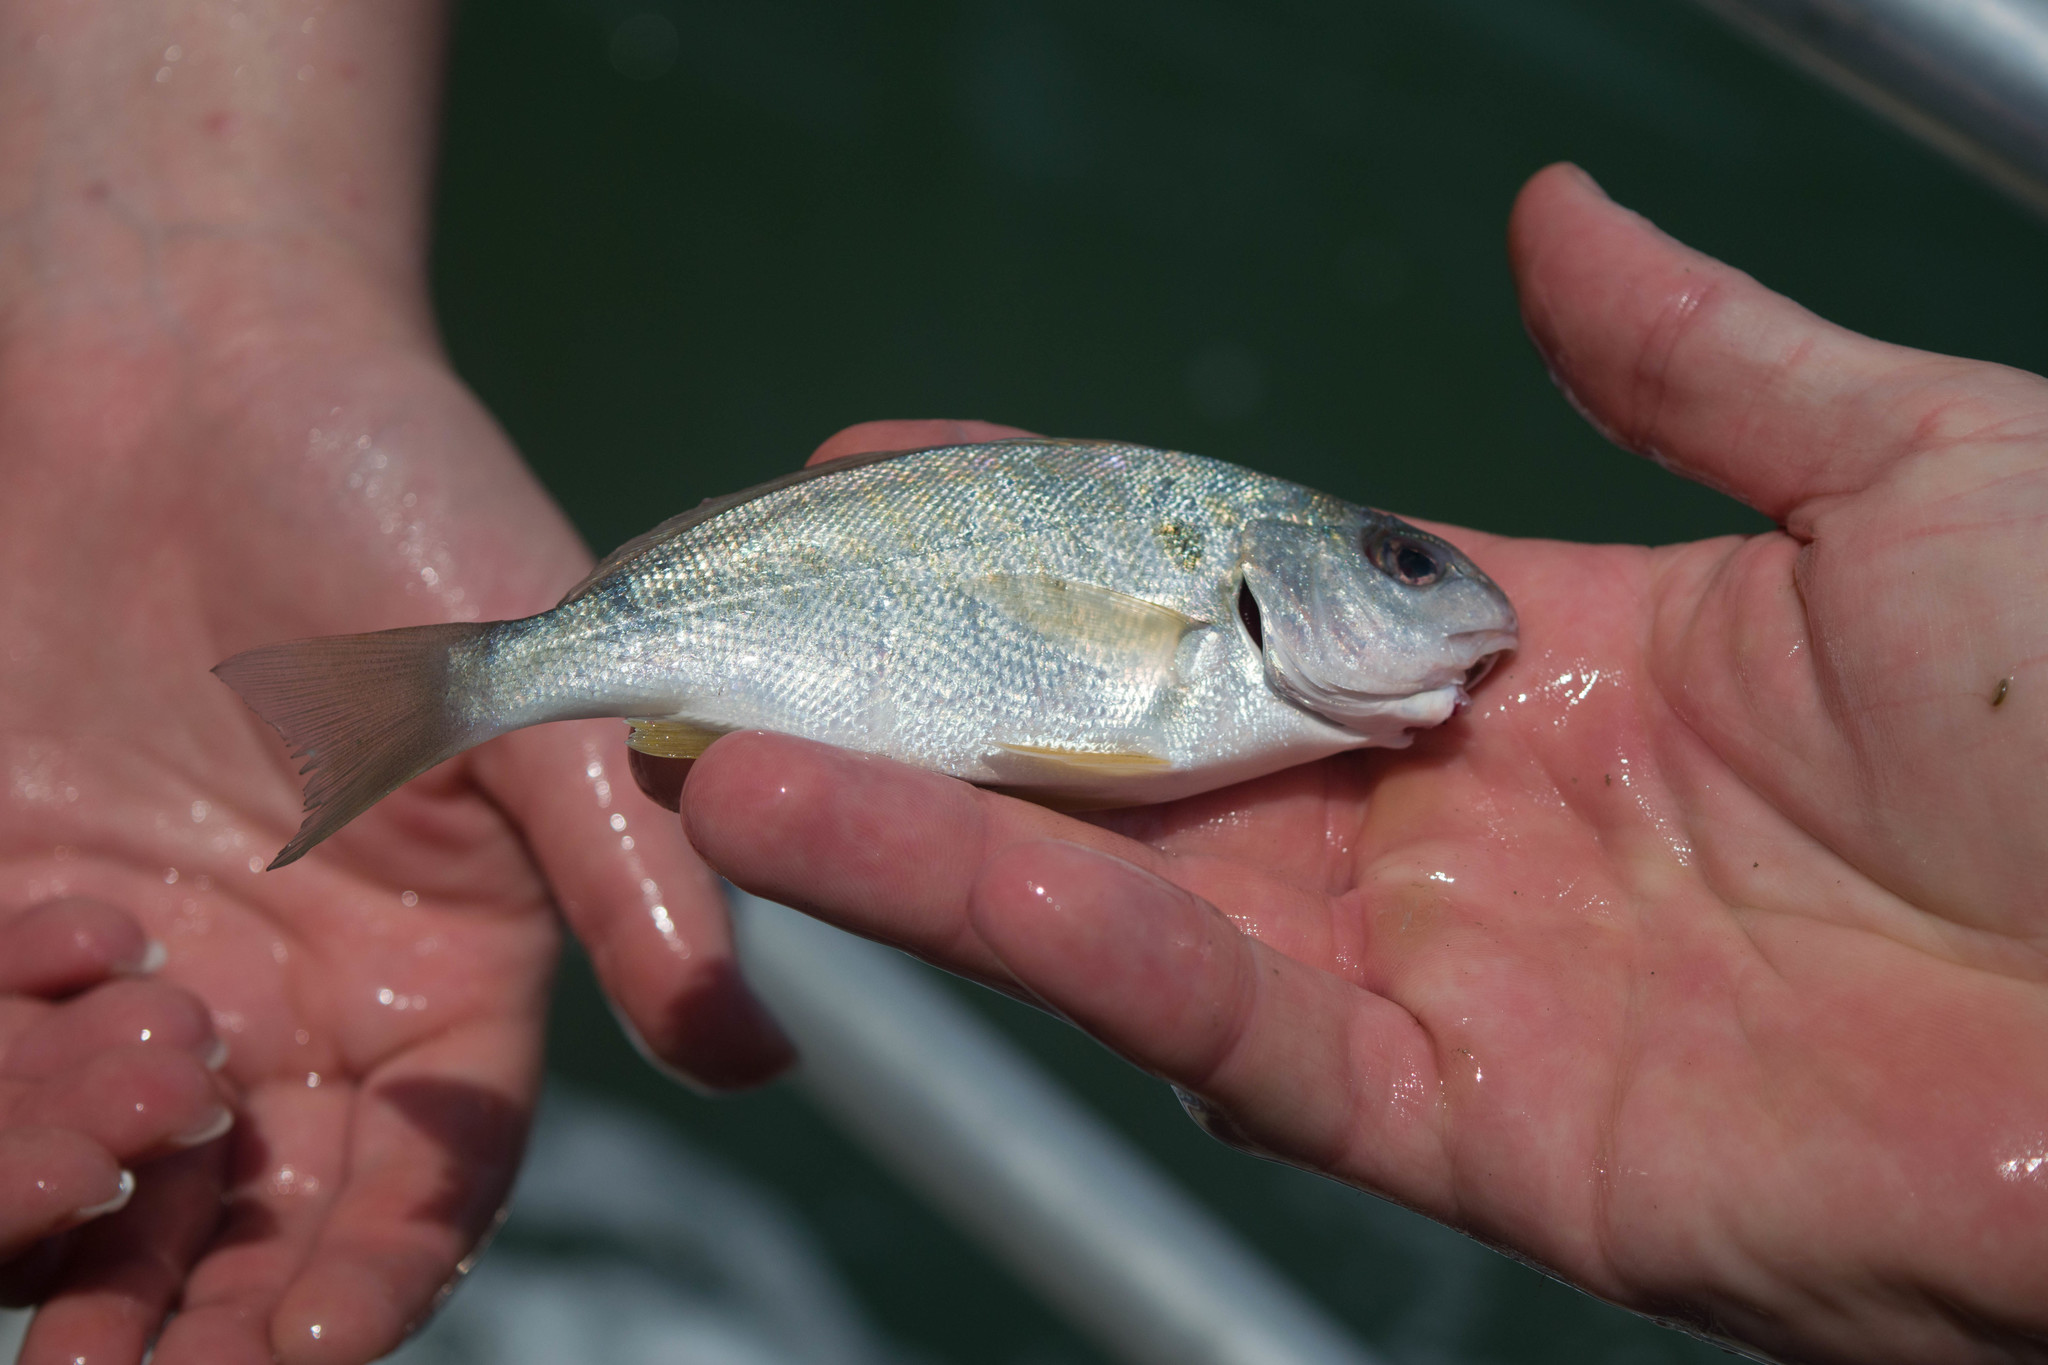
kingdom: Animalia
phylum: Chordata
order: Perciformes
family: Sciaenidae
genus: Leiostomus
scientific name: Leiostomus xanthurus
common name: Spot
